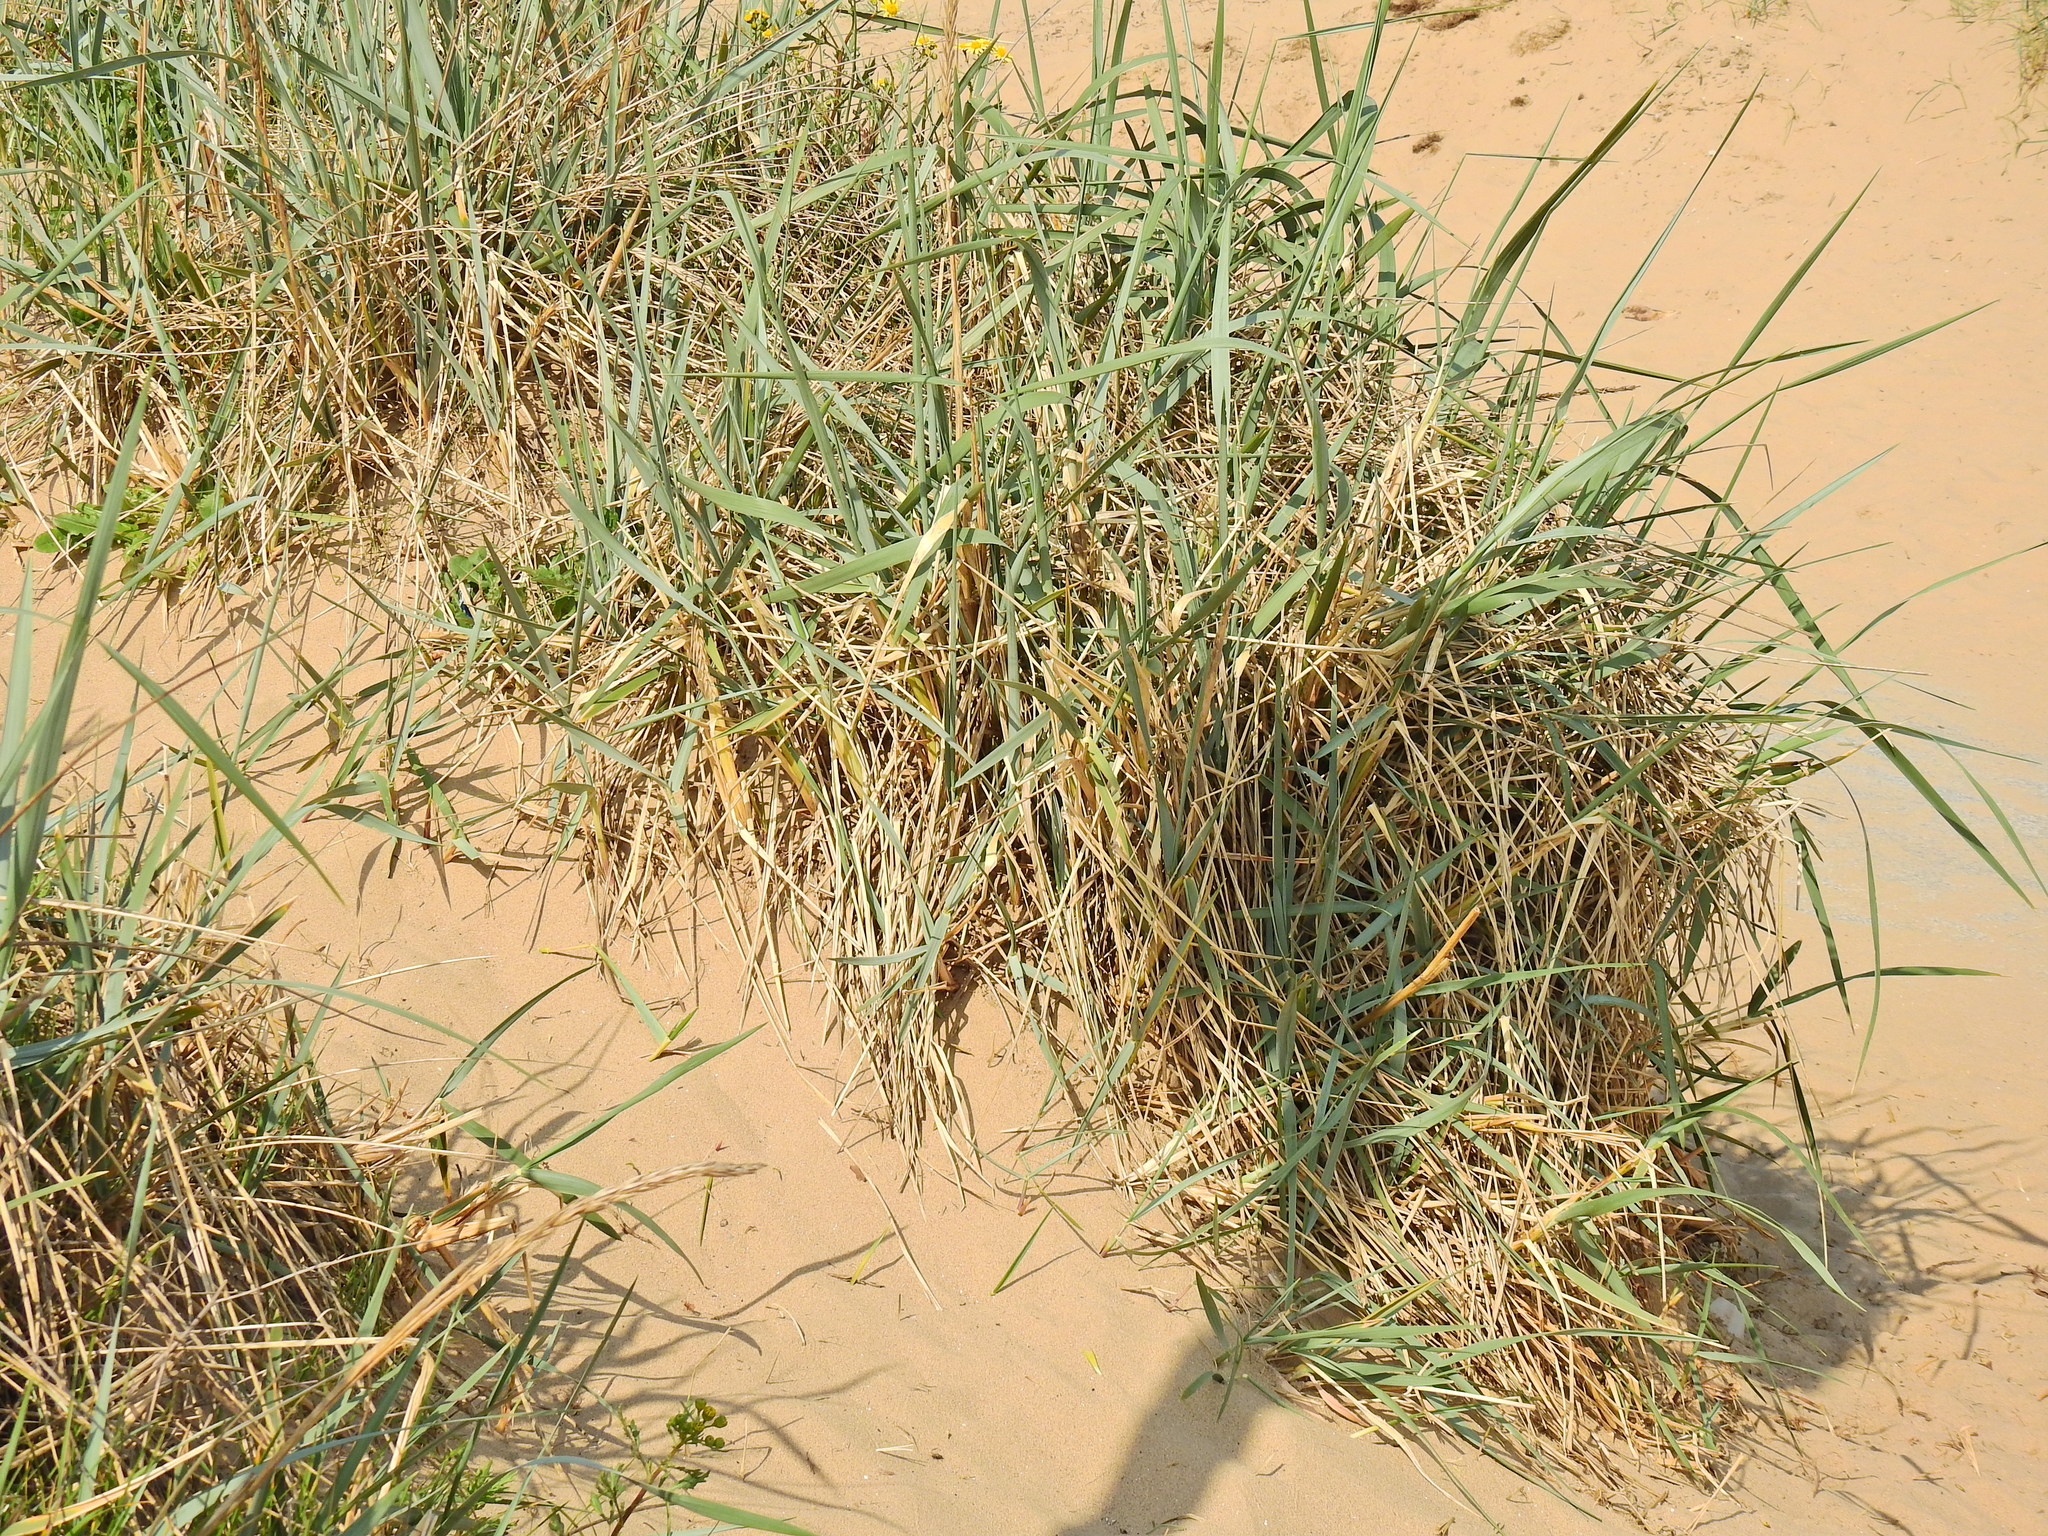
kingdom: Plantae
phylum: Tracheophyta
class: Liliopsida
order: Poales
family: Poaceae
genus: Leymus
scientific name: Leymus arenarius
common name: Lyme-grass
